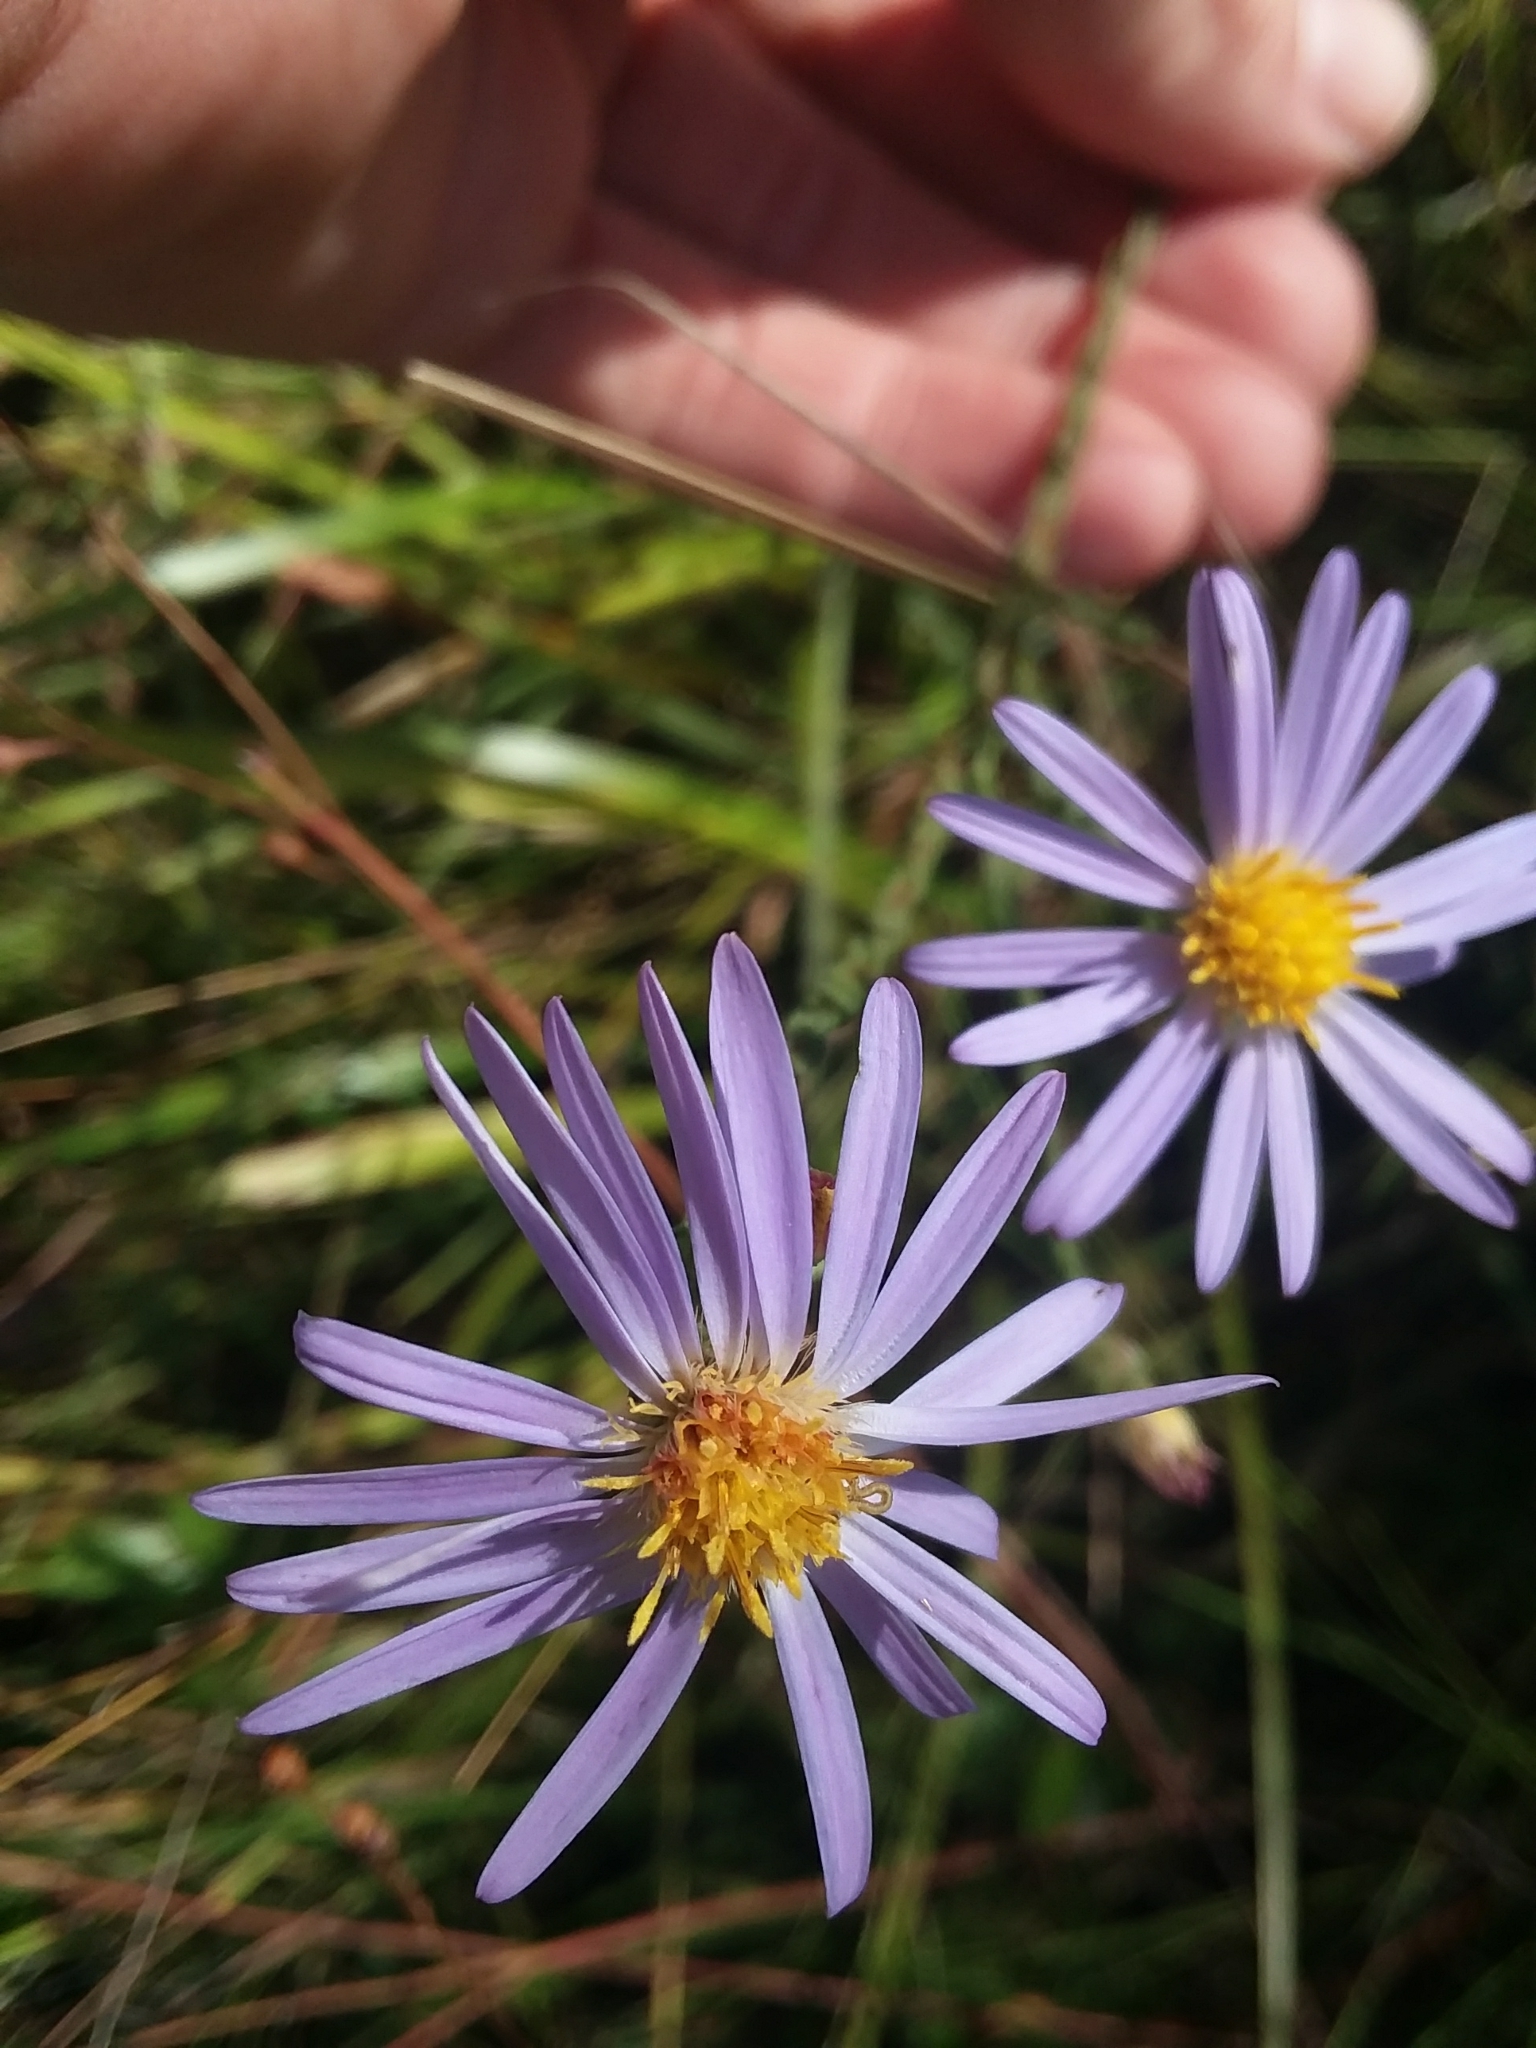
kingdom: Plantae
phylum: Tracheophyta
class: Magnoliopsida
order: Asterales
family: Asteraceae
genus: Symphyotrichum
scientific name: Symphyotrichum adnatum
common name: Scale-leaf aster
